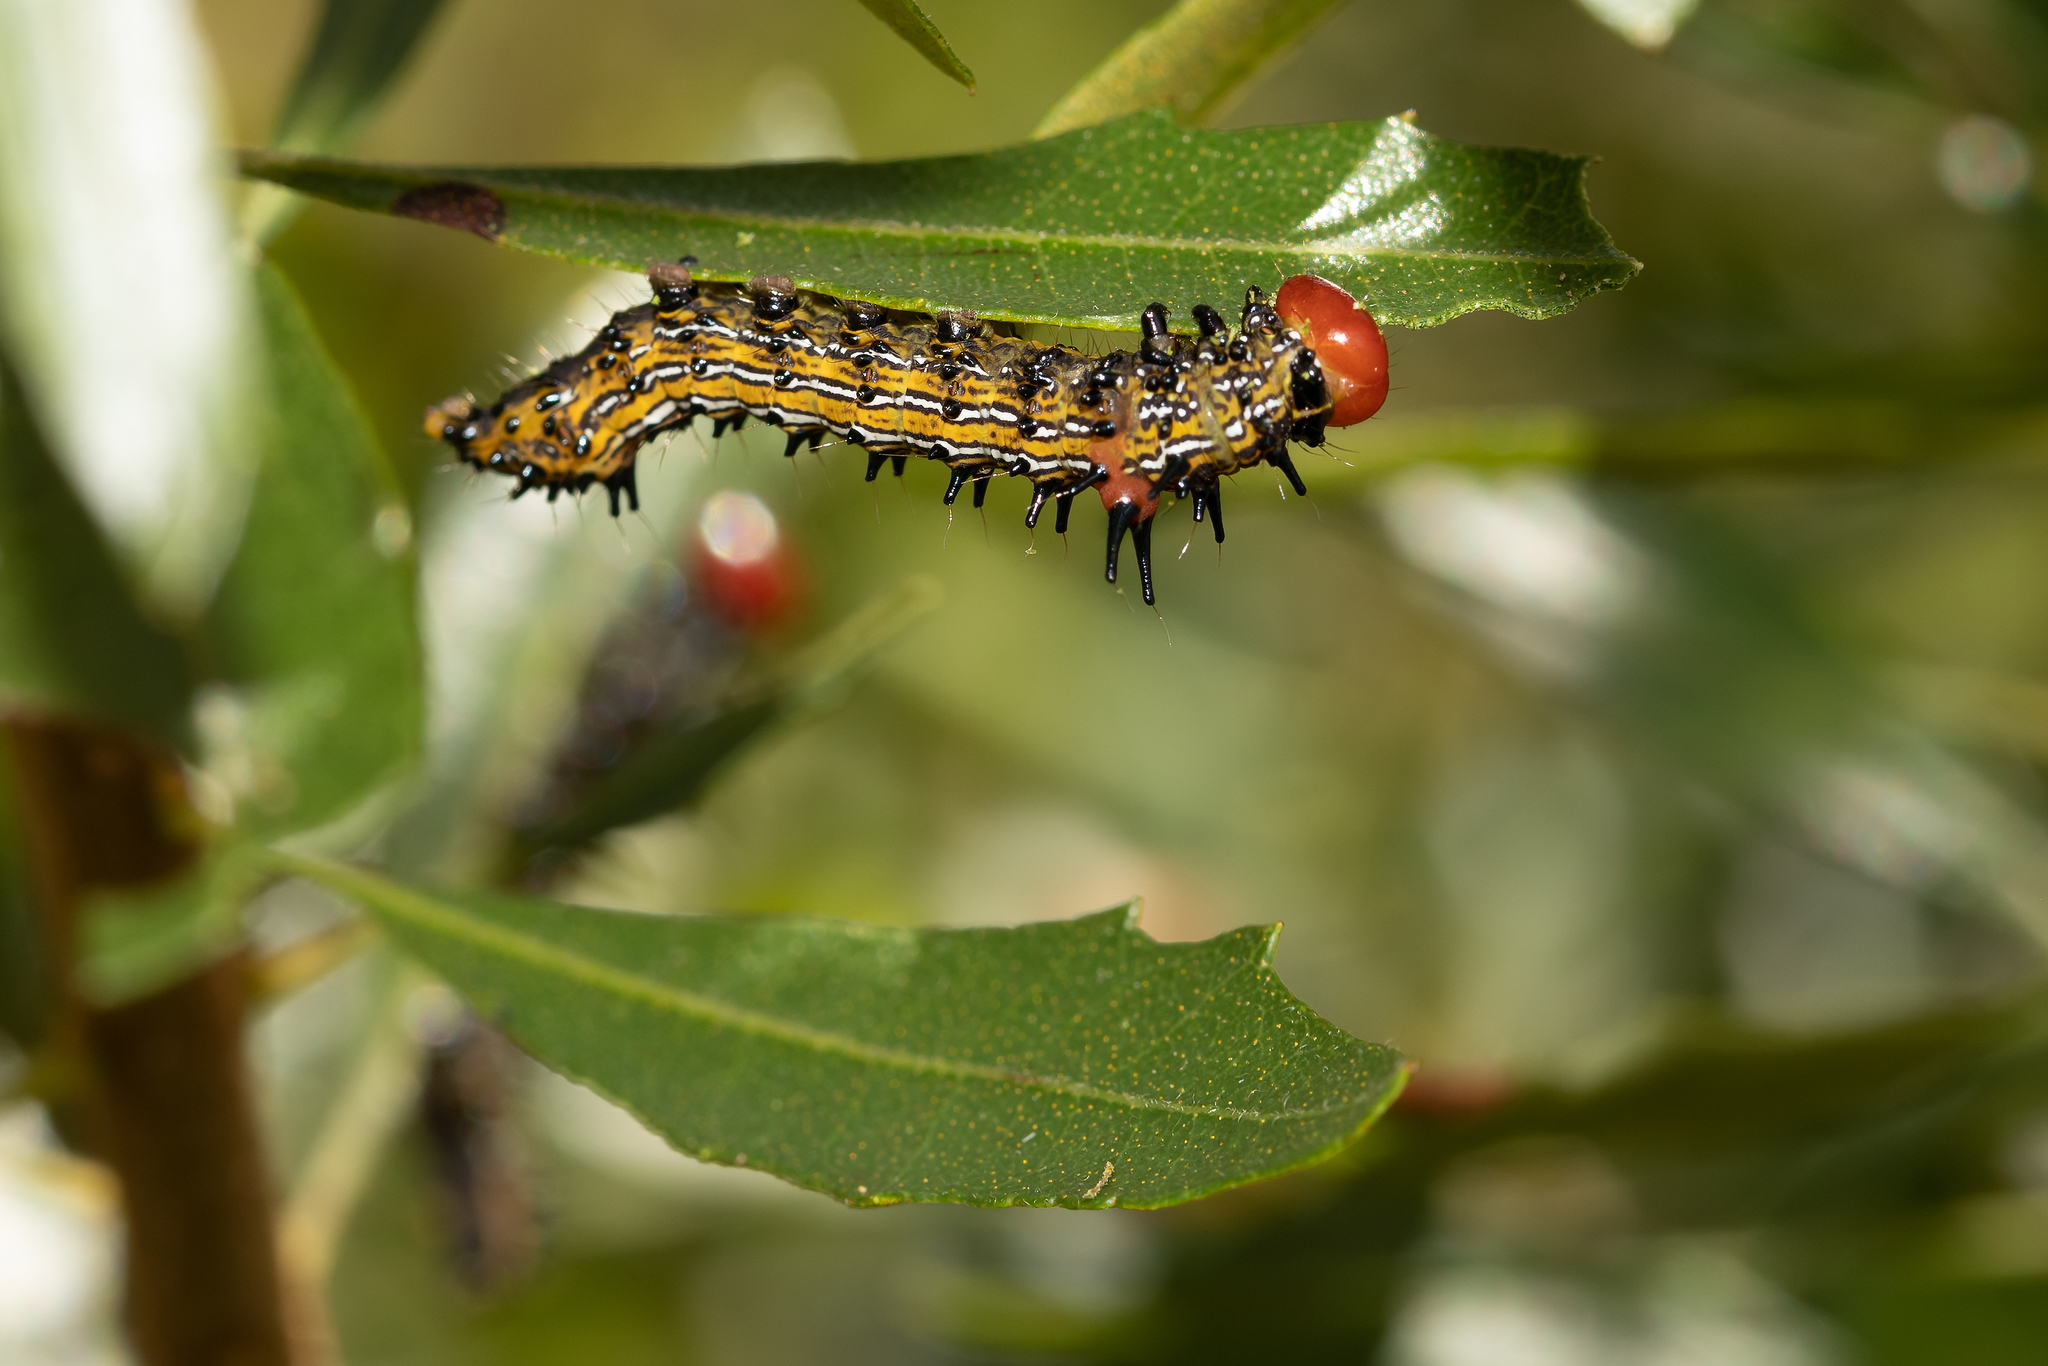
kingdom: Animalia
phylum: Arthropoda
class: Insecta
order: Lepidoptera
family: Notodontidae
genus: Schizura
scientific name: Schizura
